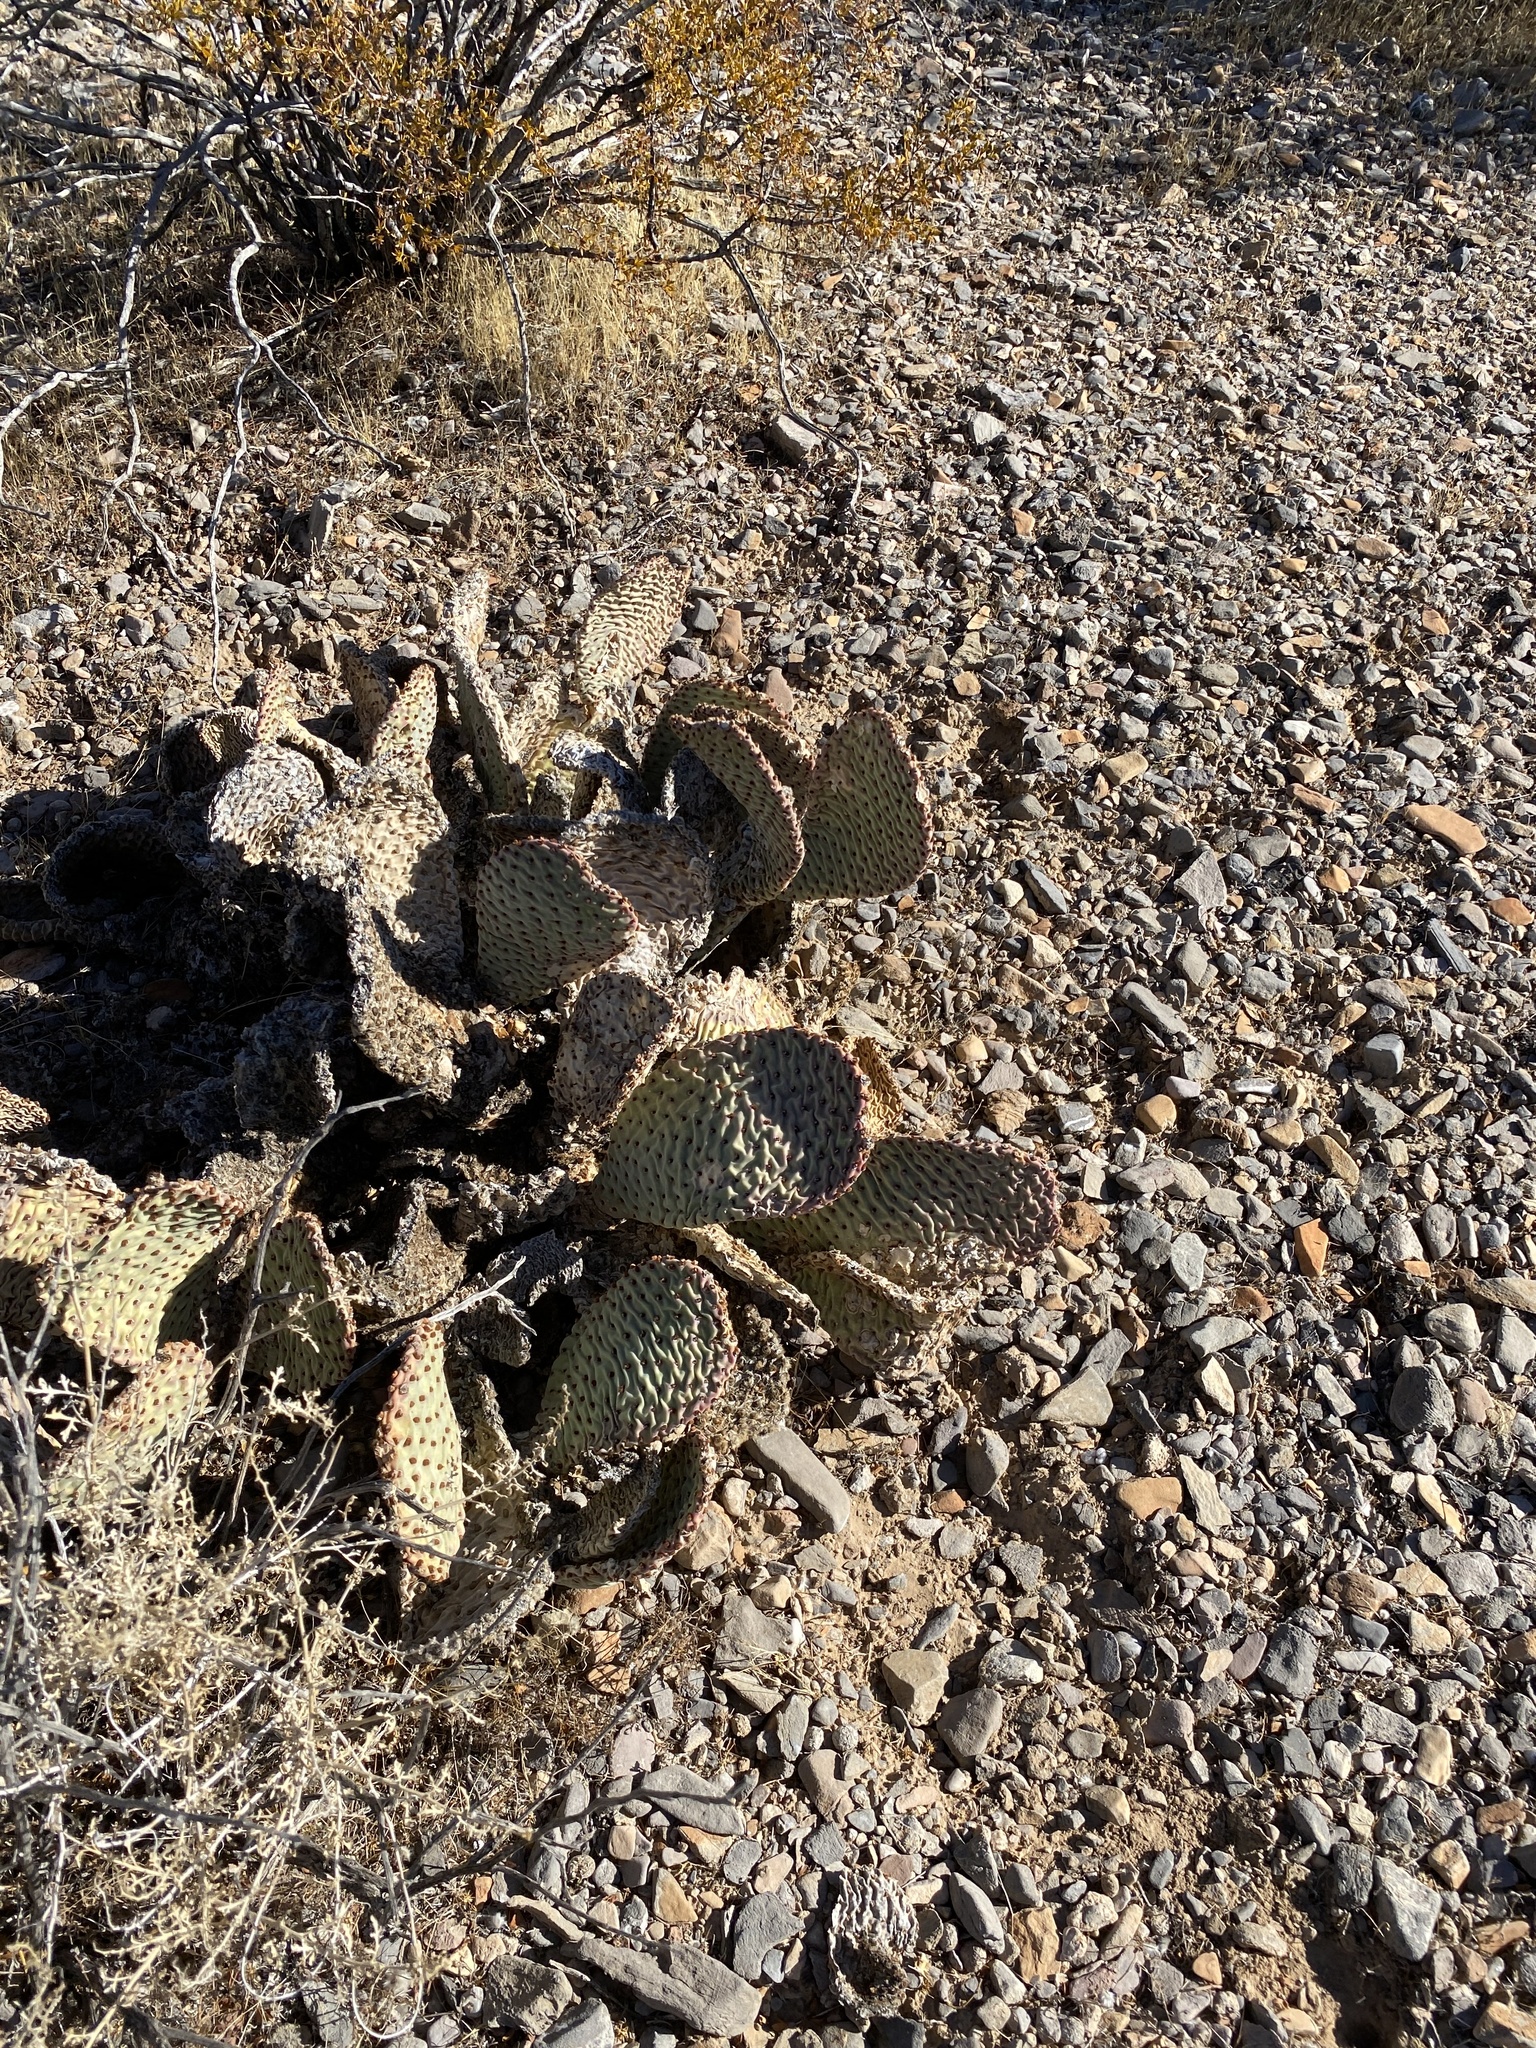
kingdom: Plantae
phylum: Tracheophyta
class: Magnoliopsida
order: Caryophyllales
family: Cactaceae
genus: Opuntia
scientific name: Opuntia basilaris
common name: Beavertail prickly-pear
